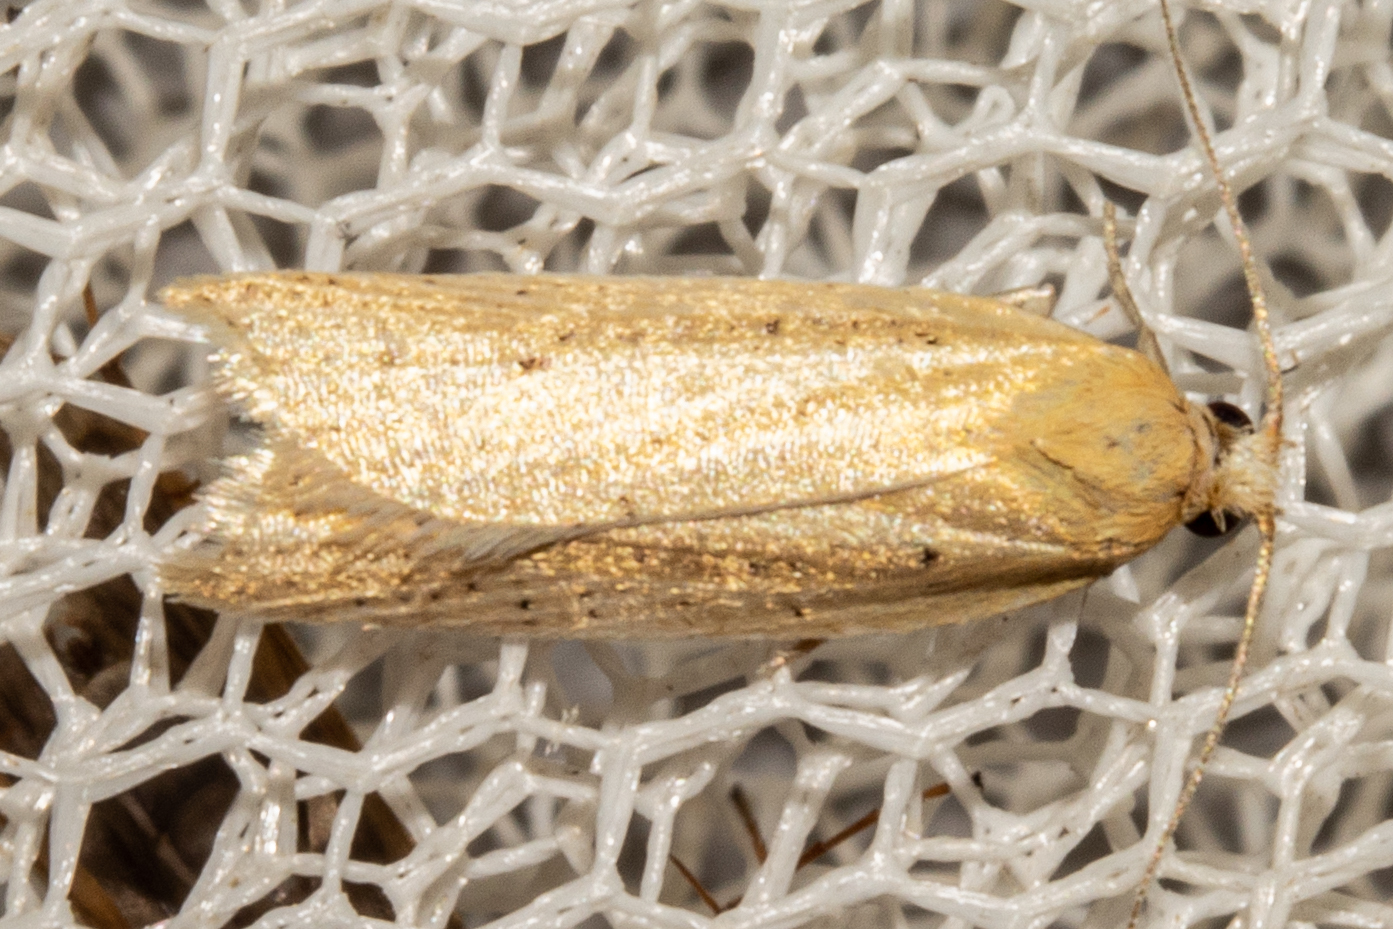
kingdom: Animalia
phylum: Arthropoda
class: Insecta
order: Lepidoptera
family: Tortricidae
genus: Clepsis
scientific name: Clepsis
